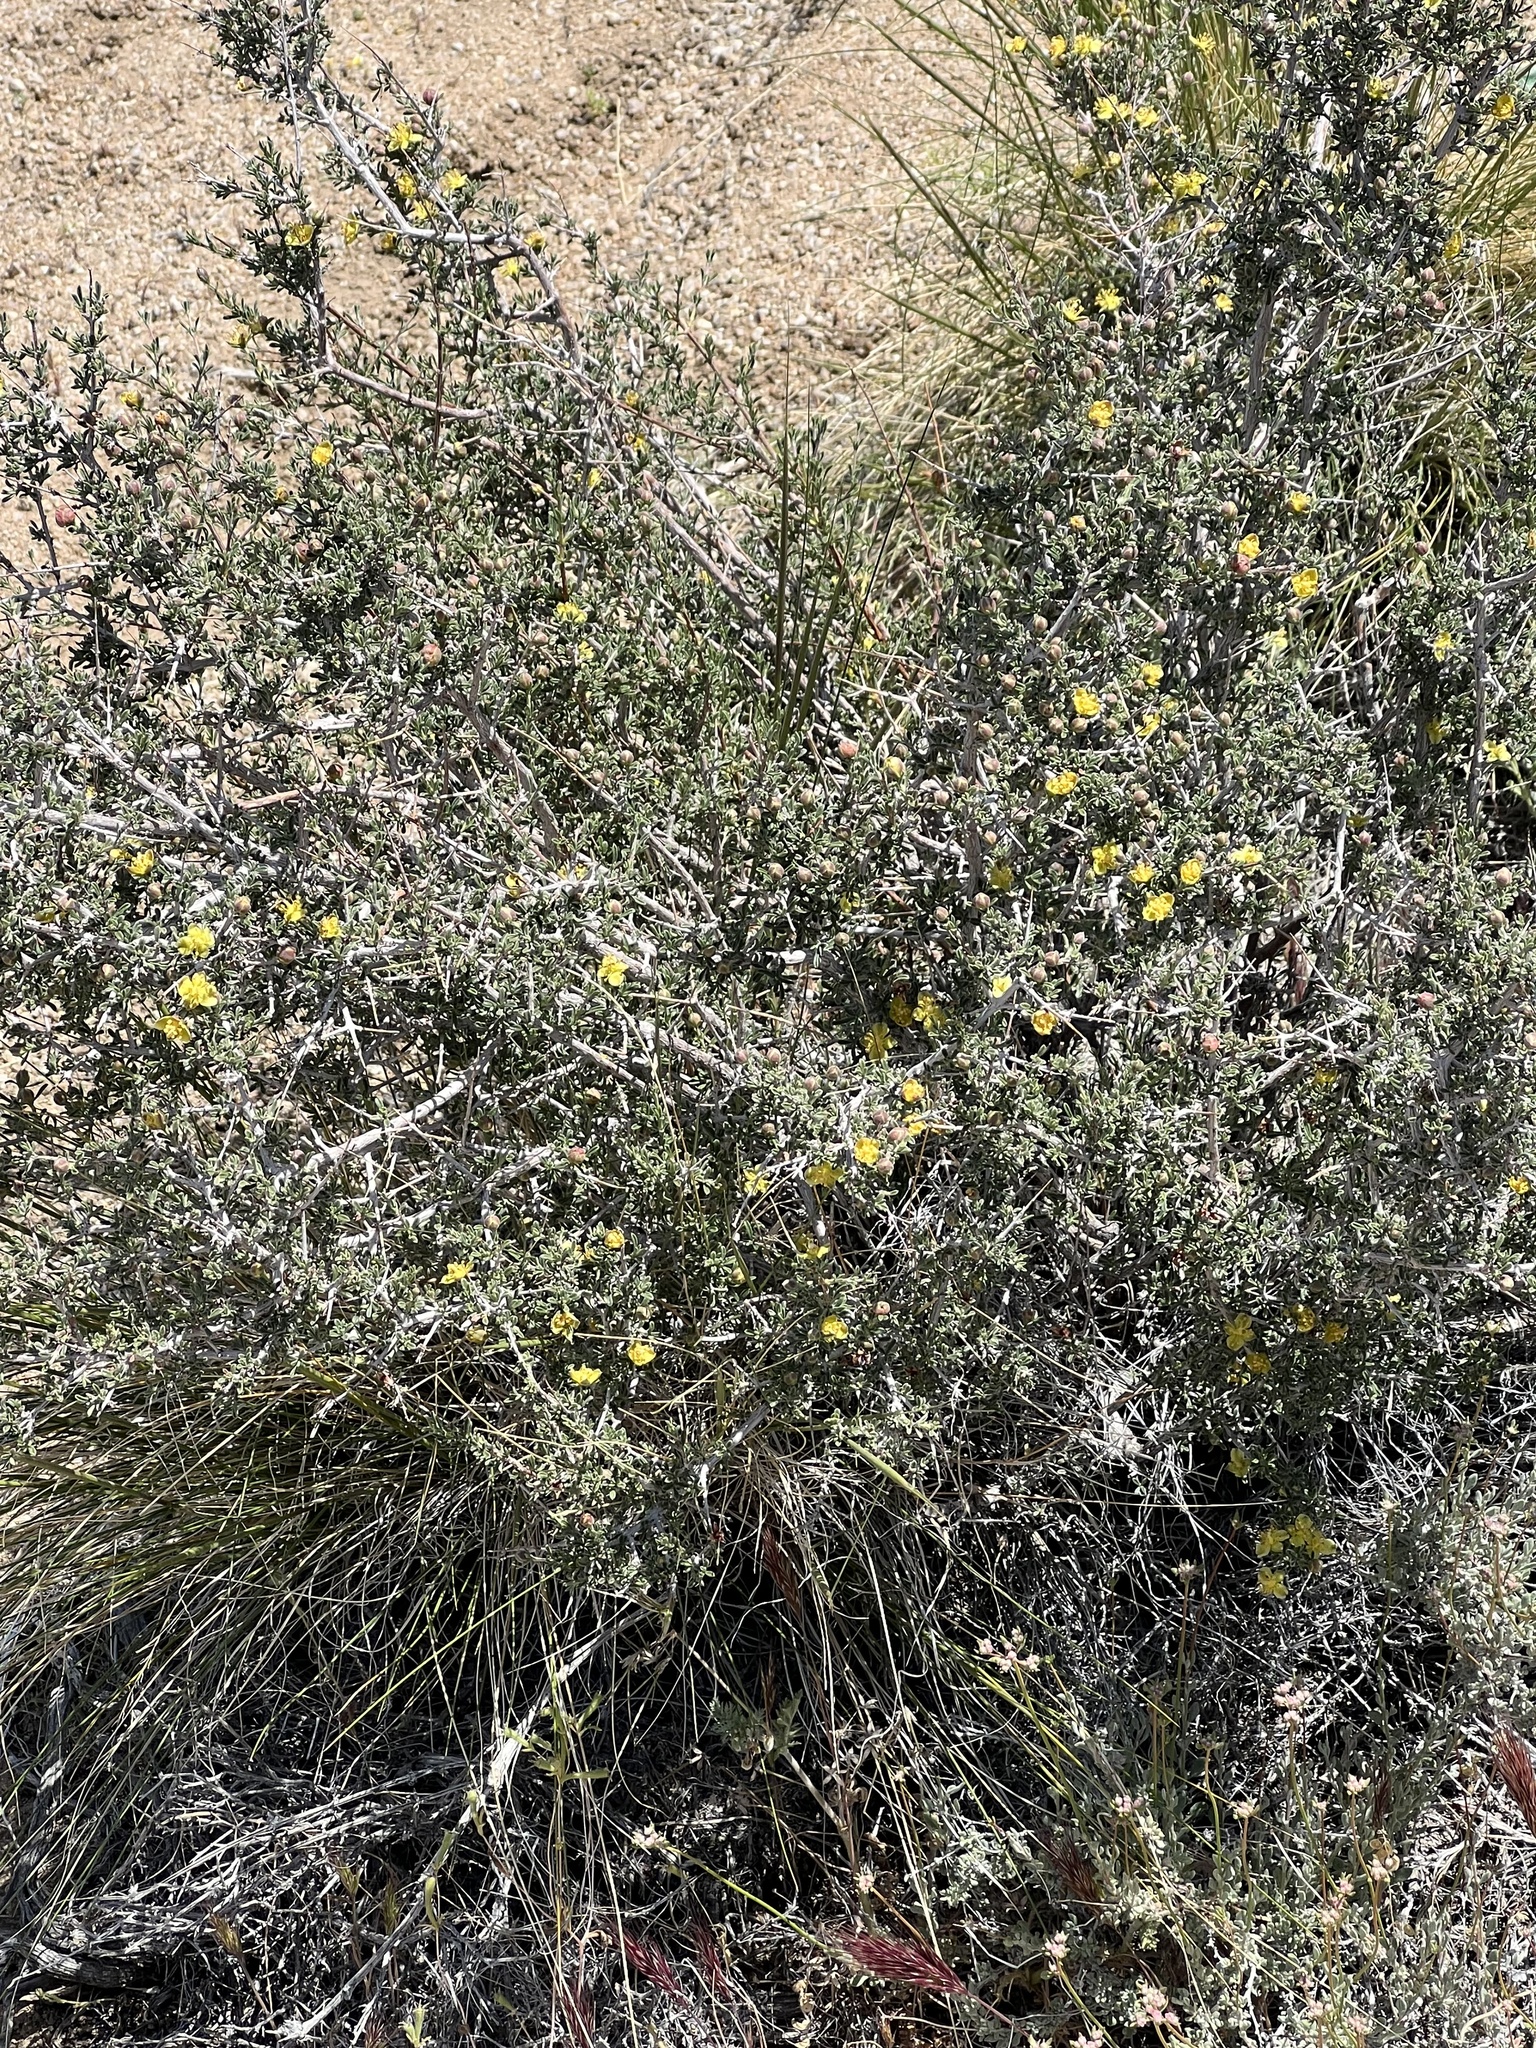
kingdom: Plantae
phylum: Tracheophyta
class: Magnoliopsida
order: Rosales
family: Rosaceae
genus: Coleogyne
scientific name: Coleogyne ramosissima
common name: Blackbrush
